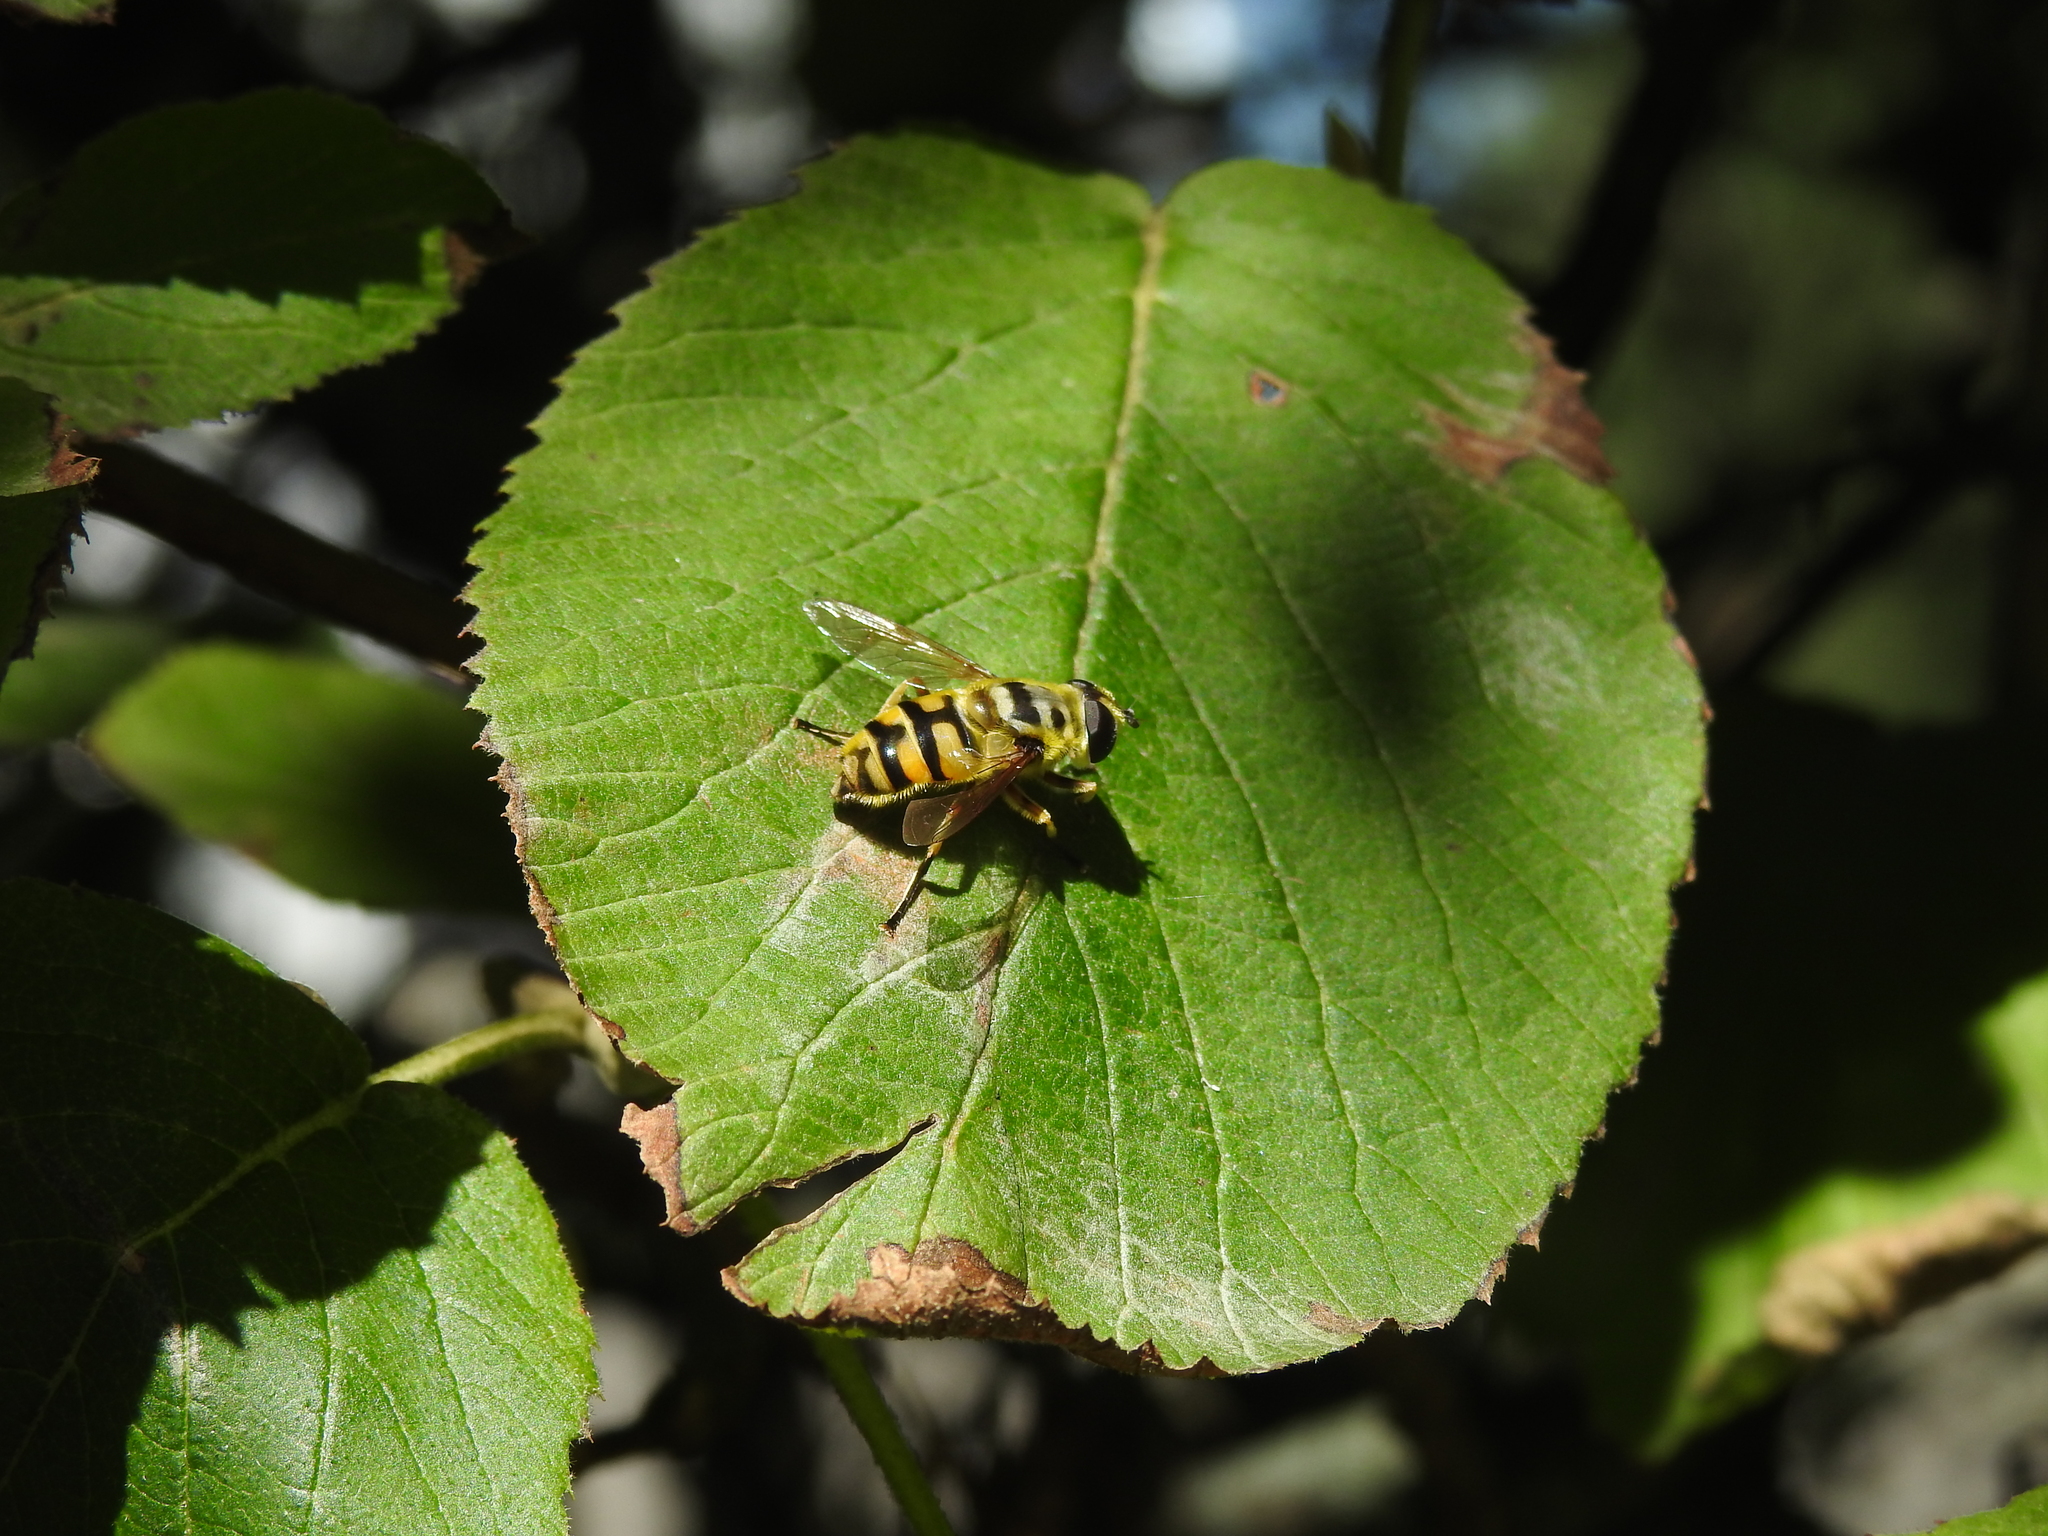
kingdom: Animalia
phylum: Arthropoda
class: Insecta
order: Diptera
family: Syrphidae
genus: Myathropa
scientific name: Myathropa florea
